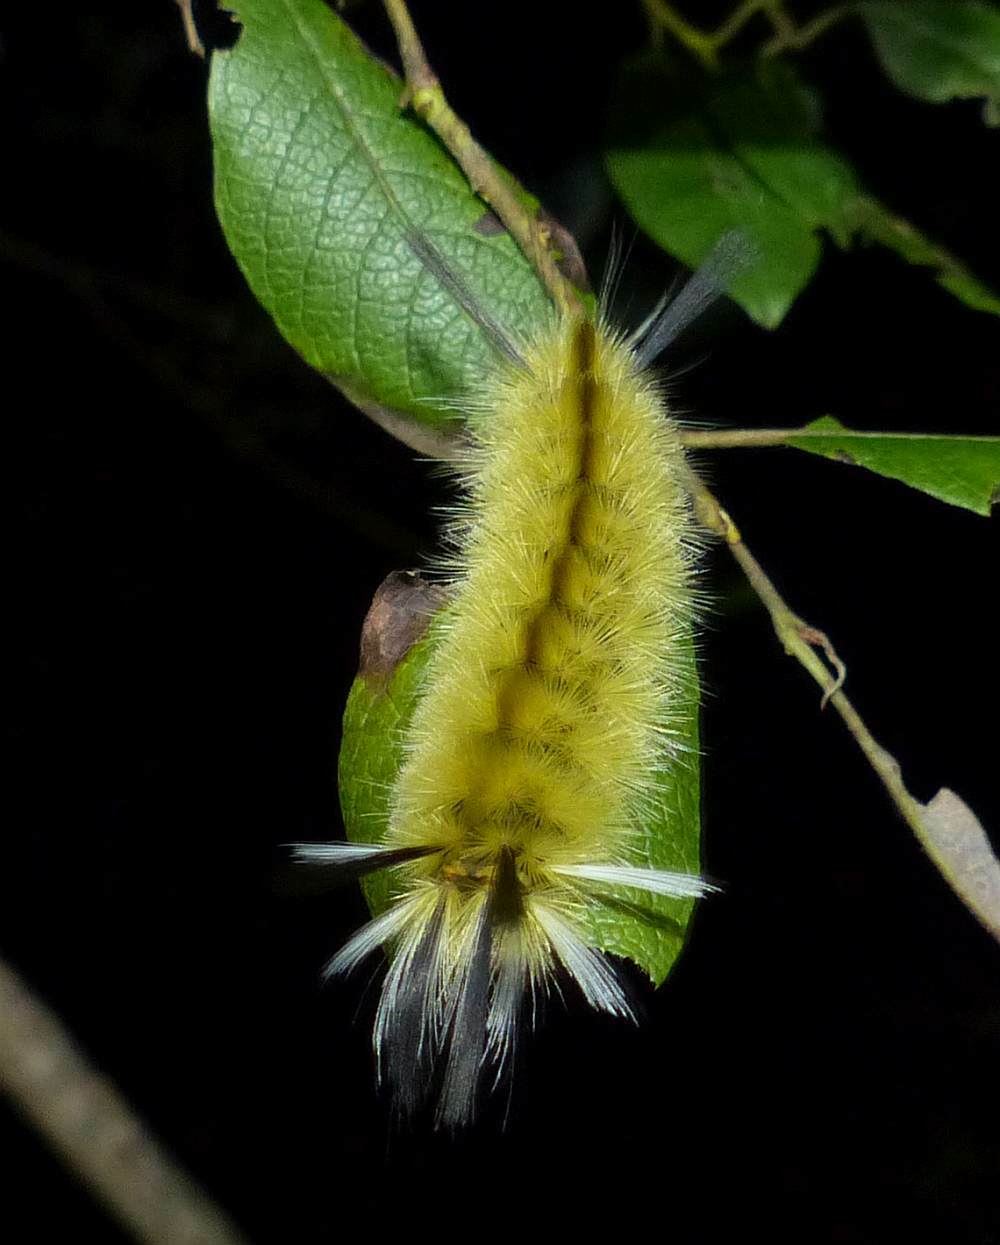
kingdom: Animalia
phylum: Arthropoda
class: Insecta
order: Lepidoptera
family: Erebidae
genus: Halysidota
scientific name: Halysidota tessellaris
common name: Banded tussock moth
